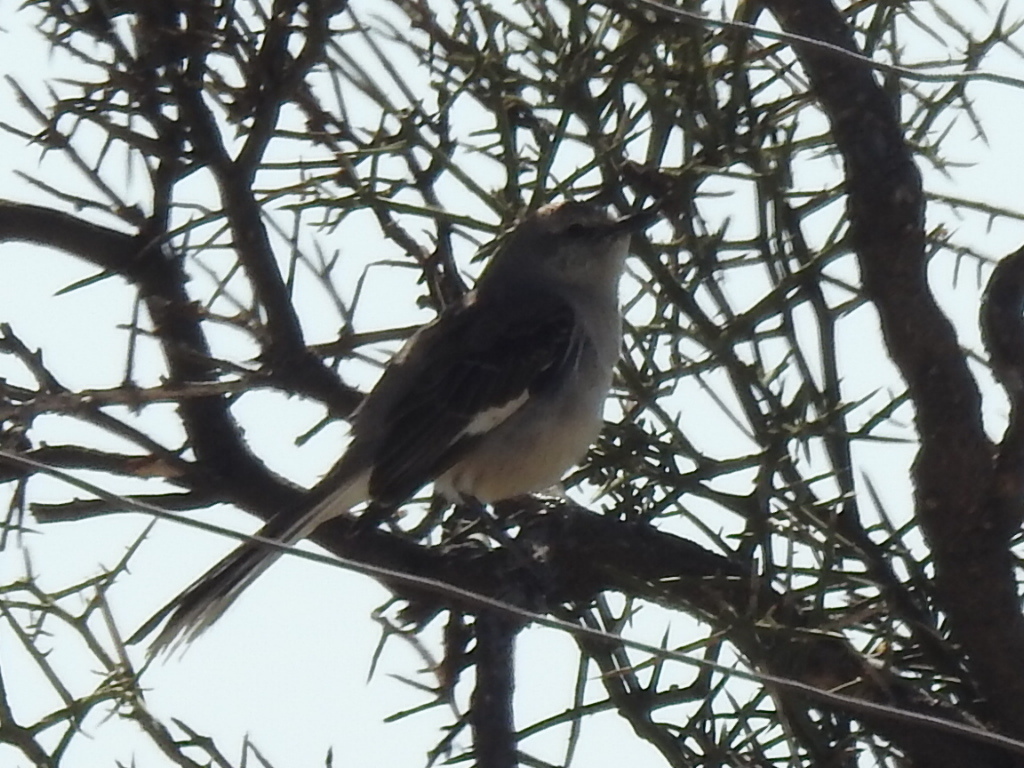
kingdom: Animalia
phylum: Chordata
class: Aves
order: Passeriformes
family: Mimidae
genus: Mimus
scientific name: Mimus polyglottos
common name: Northern mockingbird
